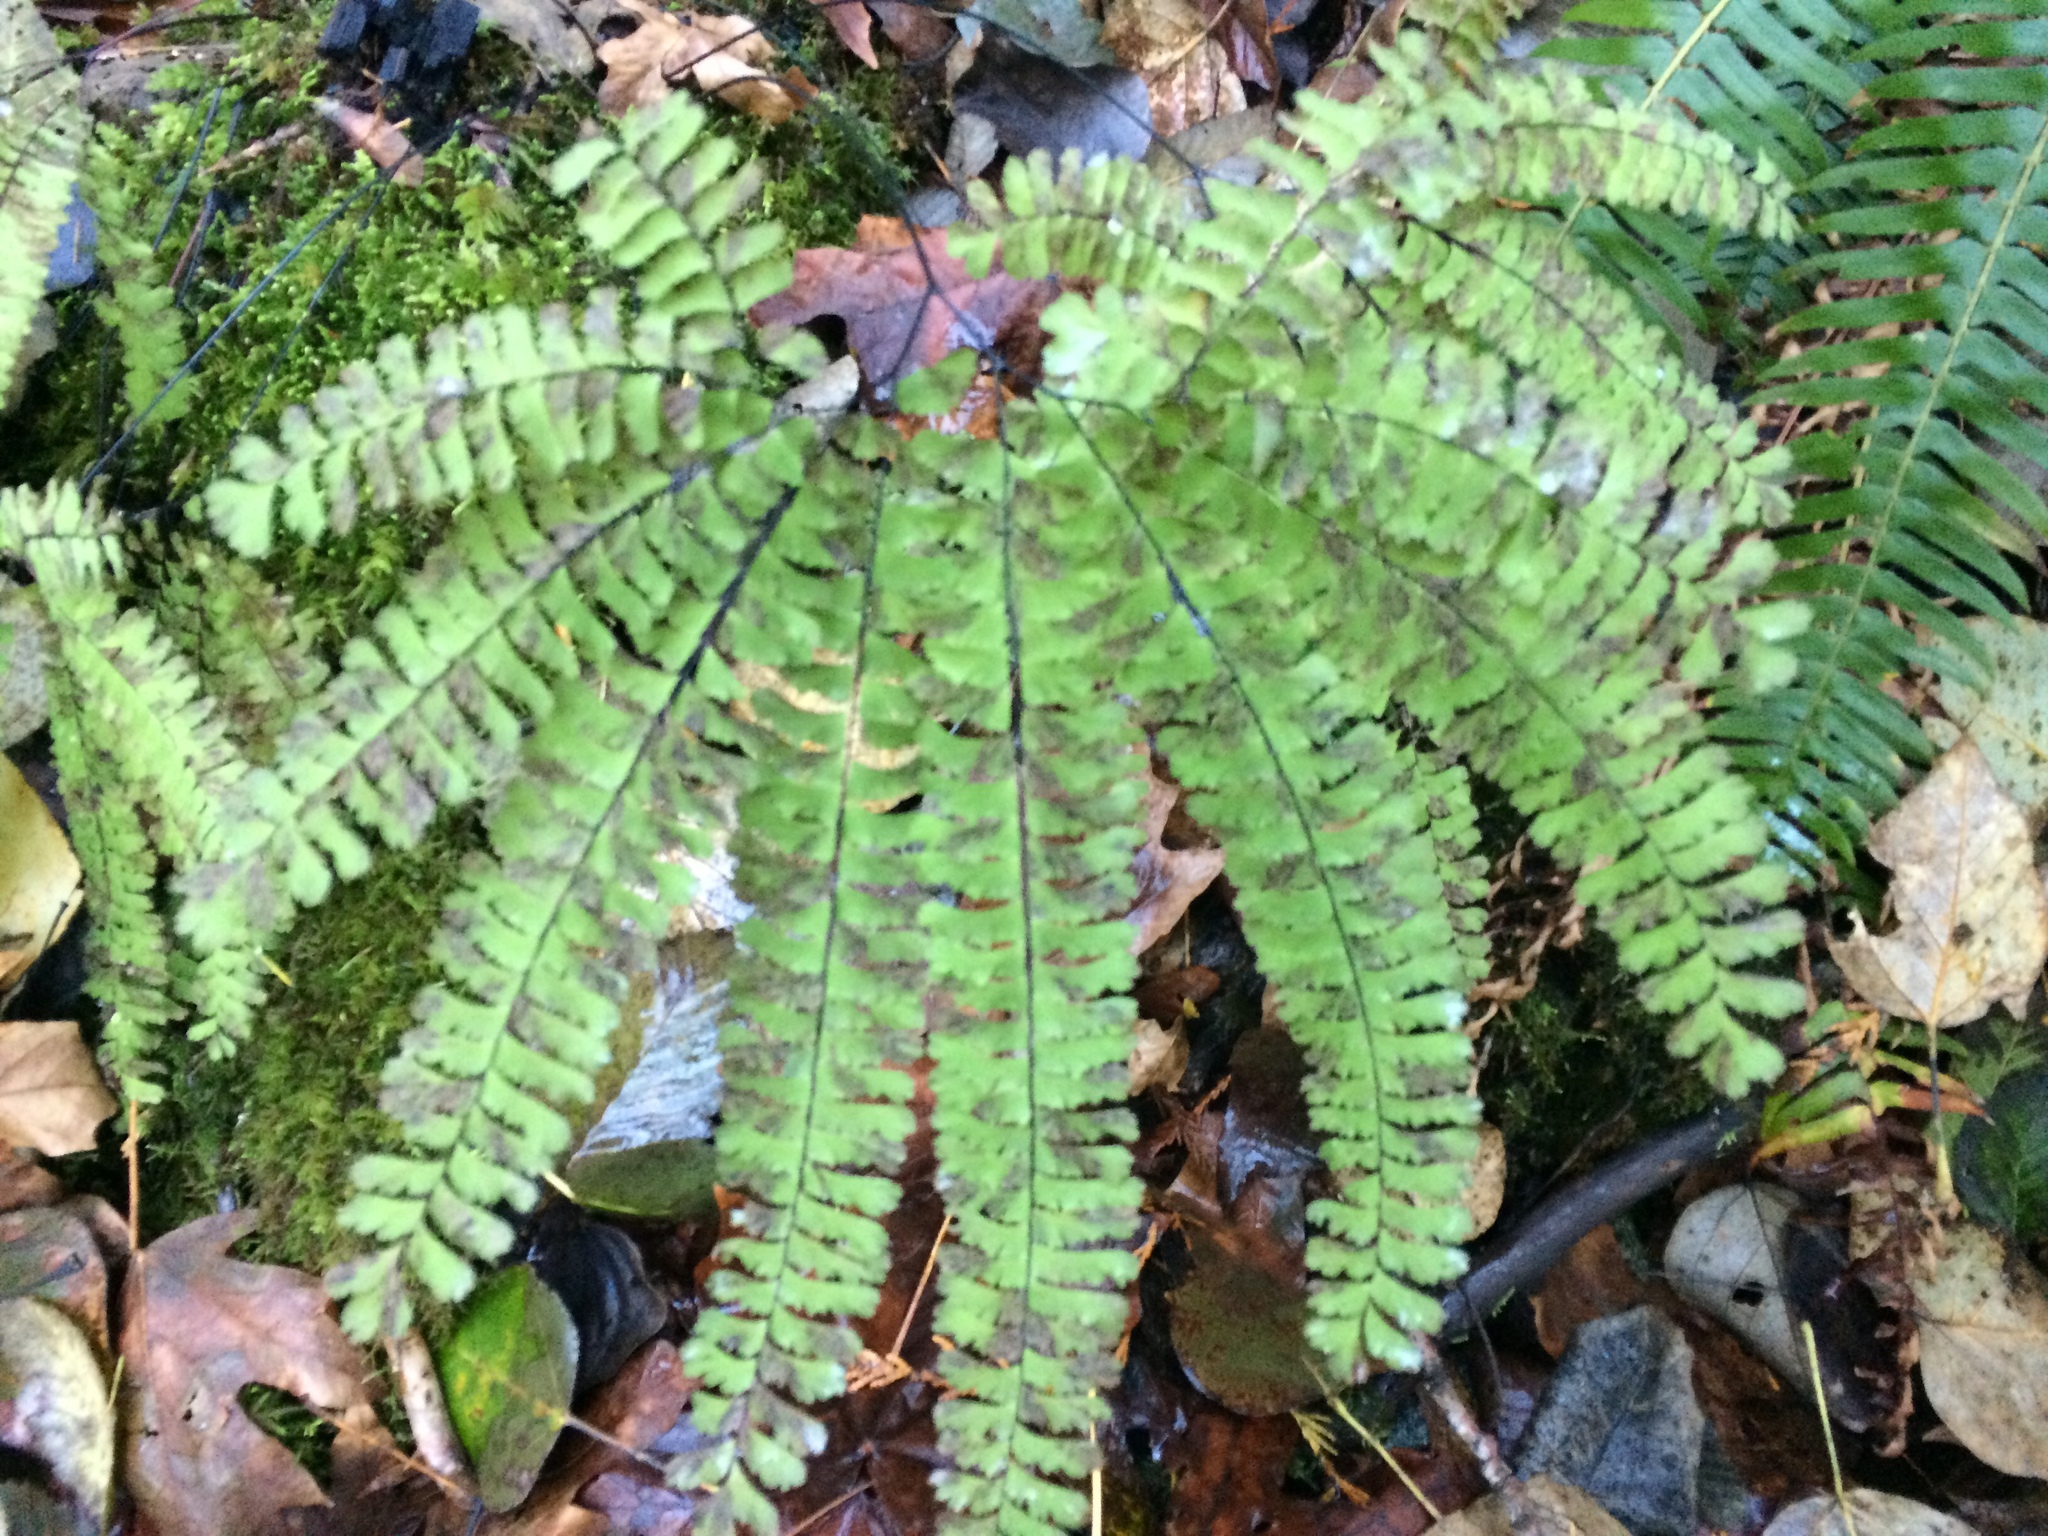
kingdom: Plantae
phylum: Tracheophyta
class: Polypodiopsida
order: Polypodiales
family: Pteridaceae
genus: Adiantum
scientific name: Adiantum aleuticum
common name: Aleutian maidenhair fern
